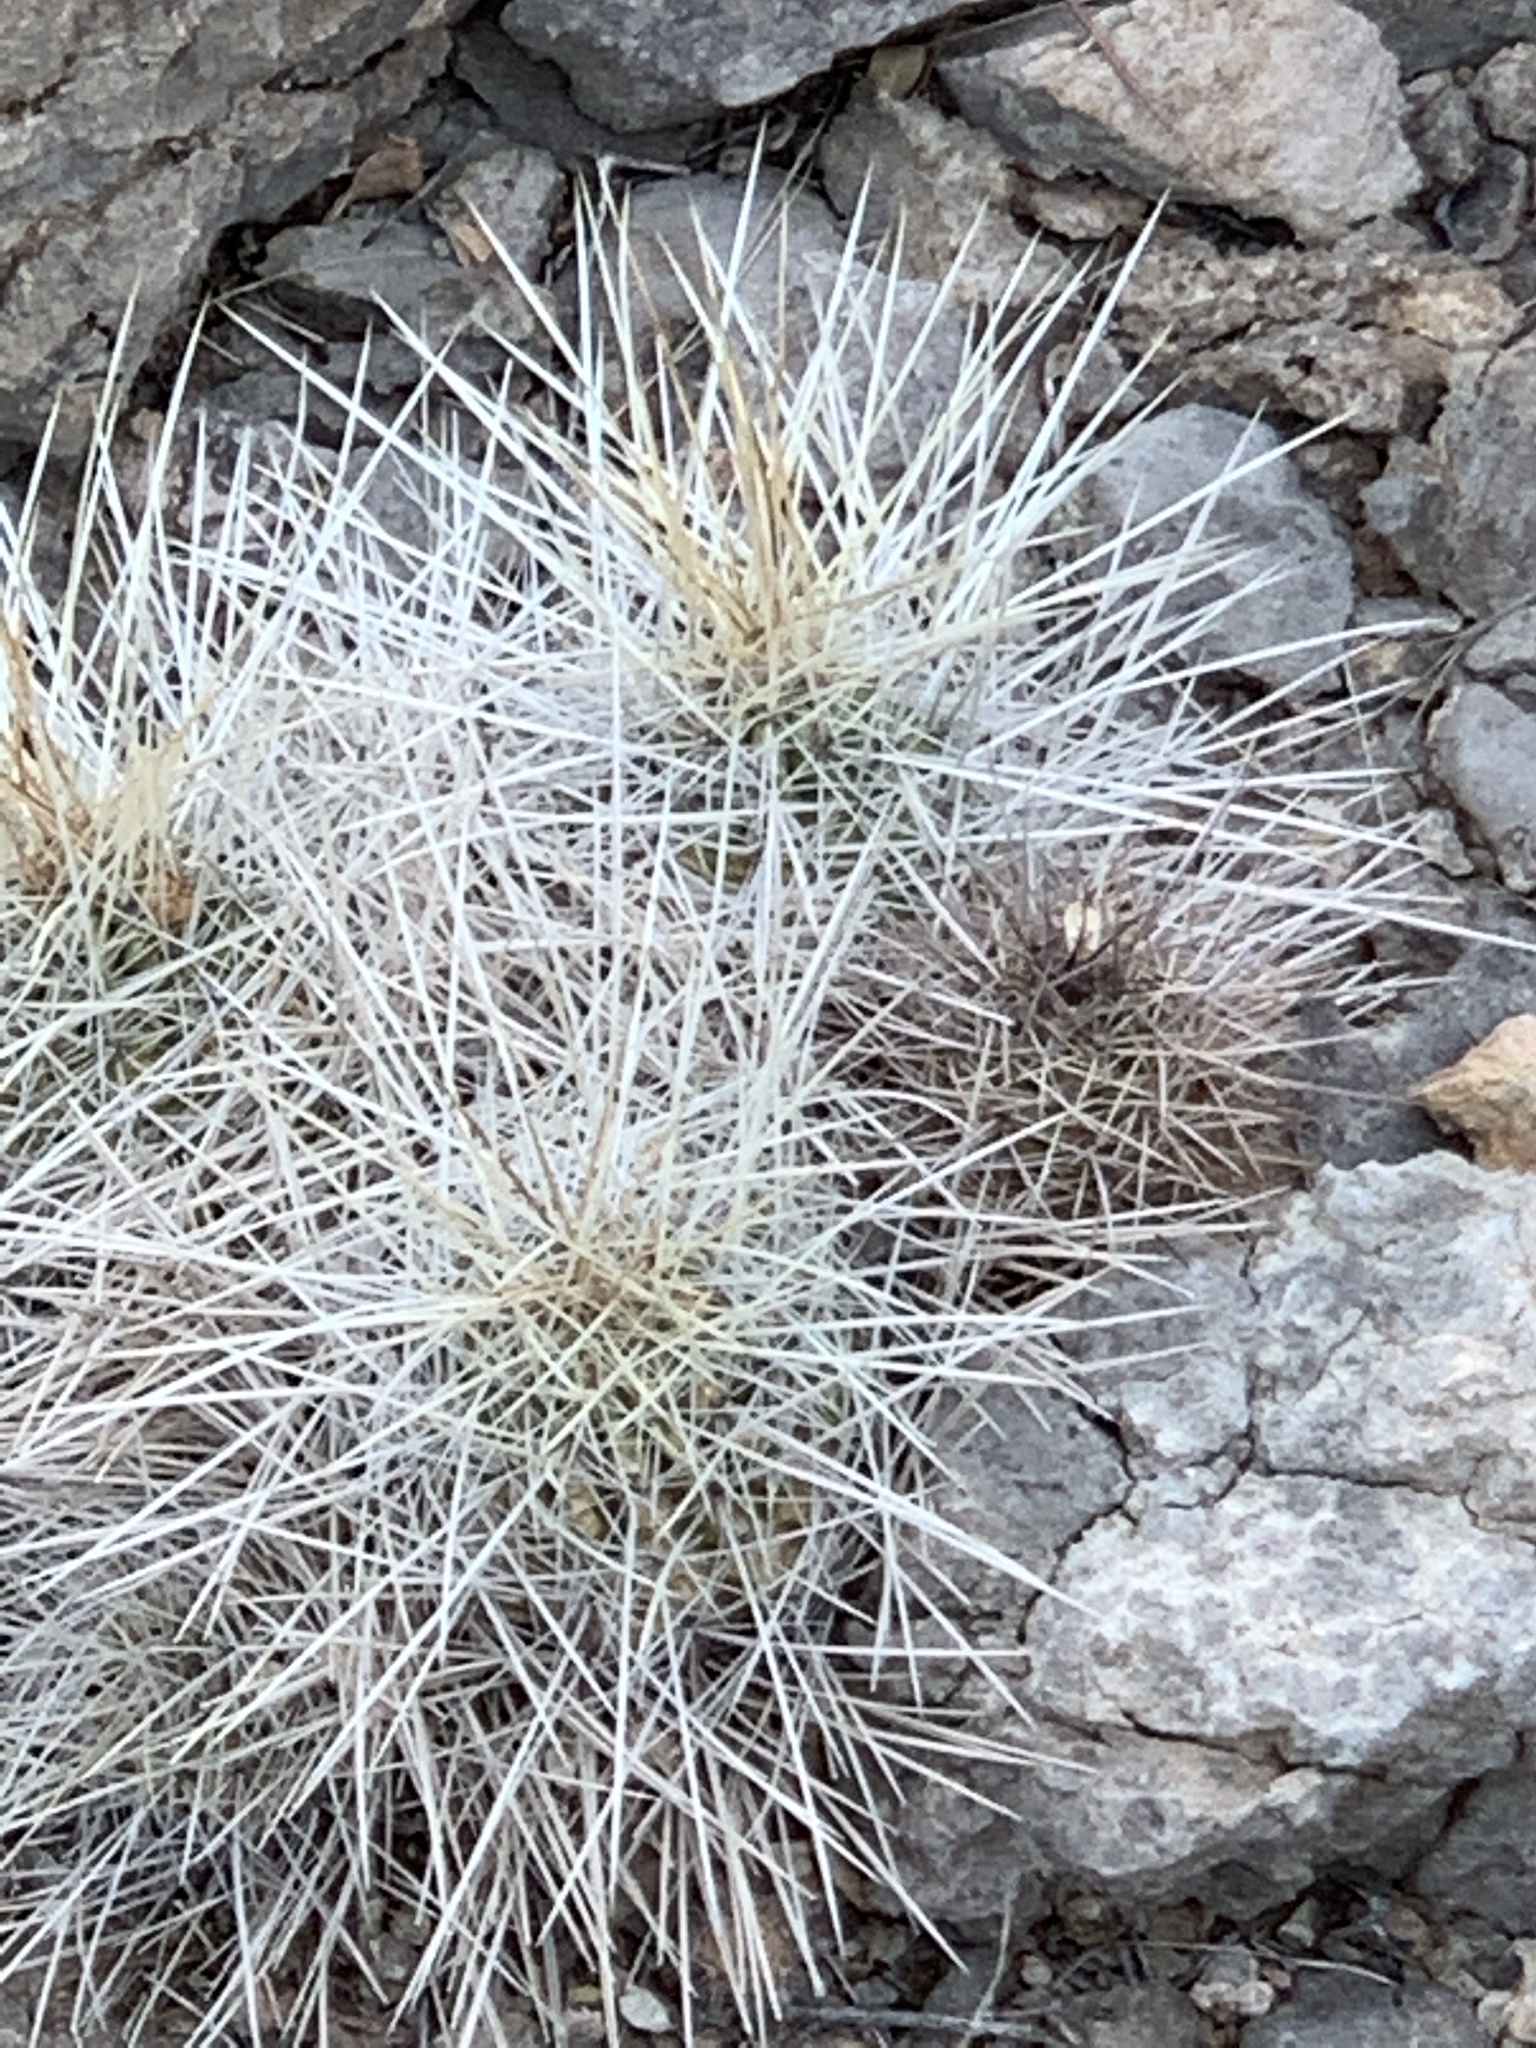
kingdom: Plantae
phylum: Tracheophyta
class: Magnoliopsida
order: Caryophyllales
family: Cactaceae
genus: Echinocereus
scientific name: Echinocereus stramineus
